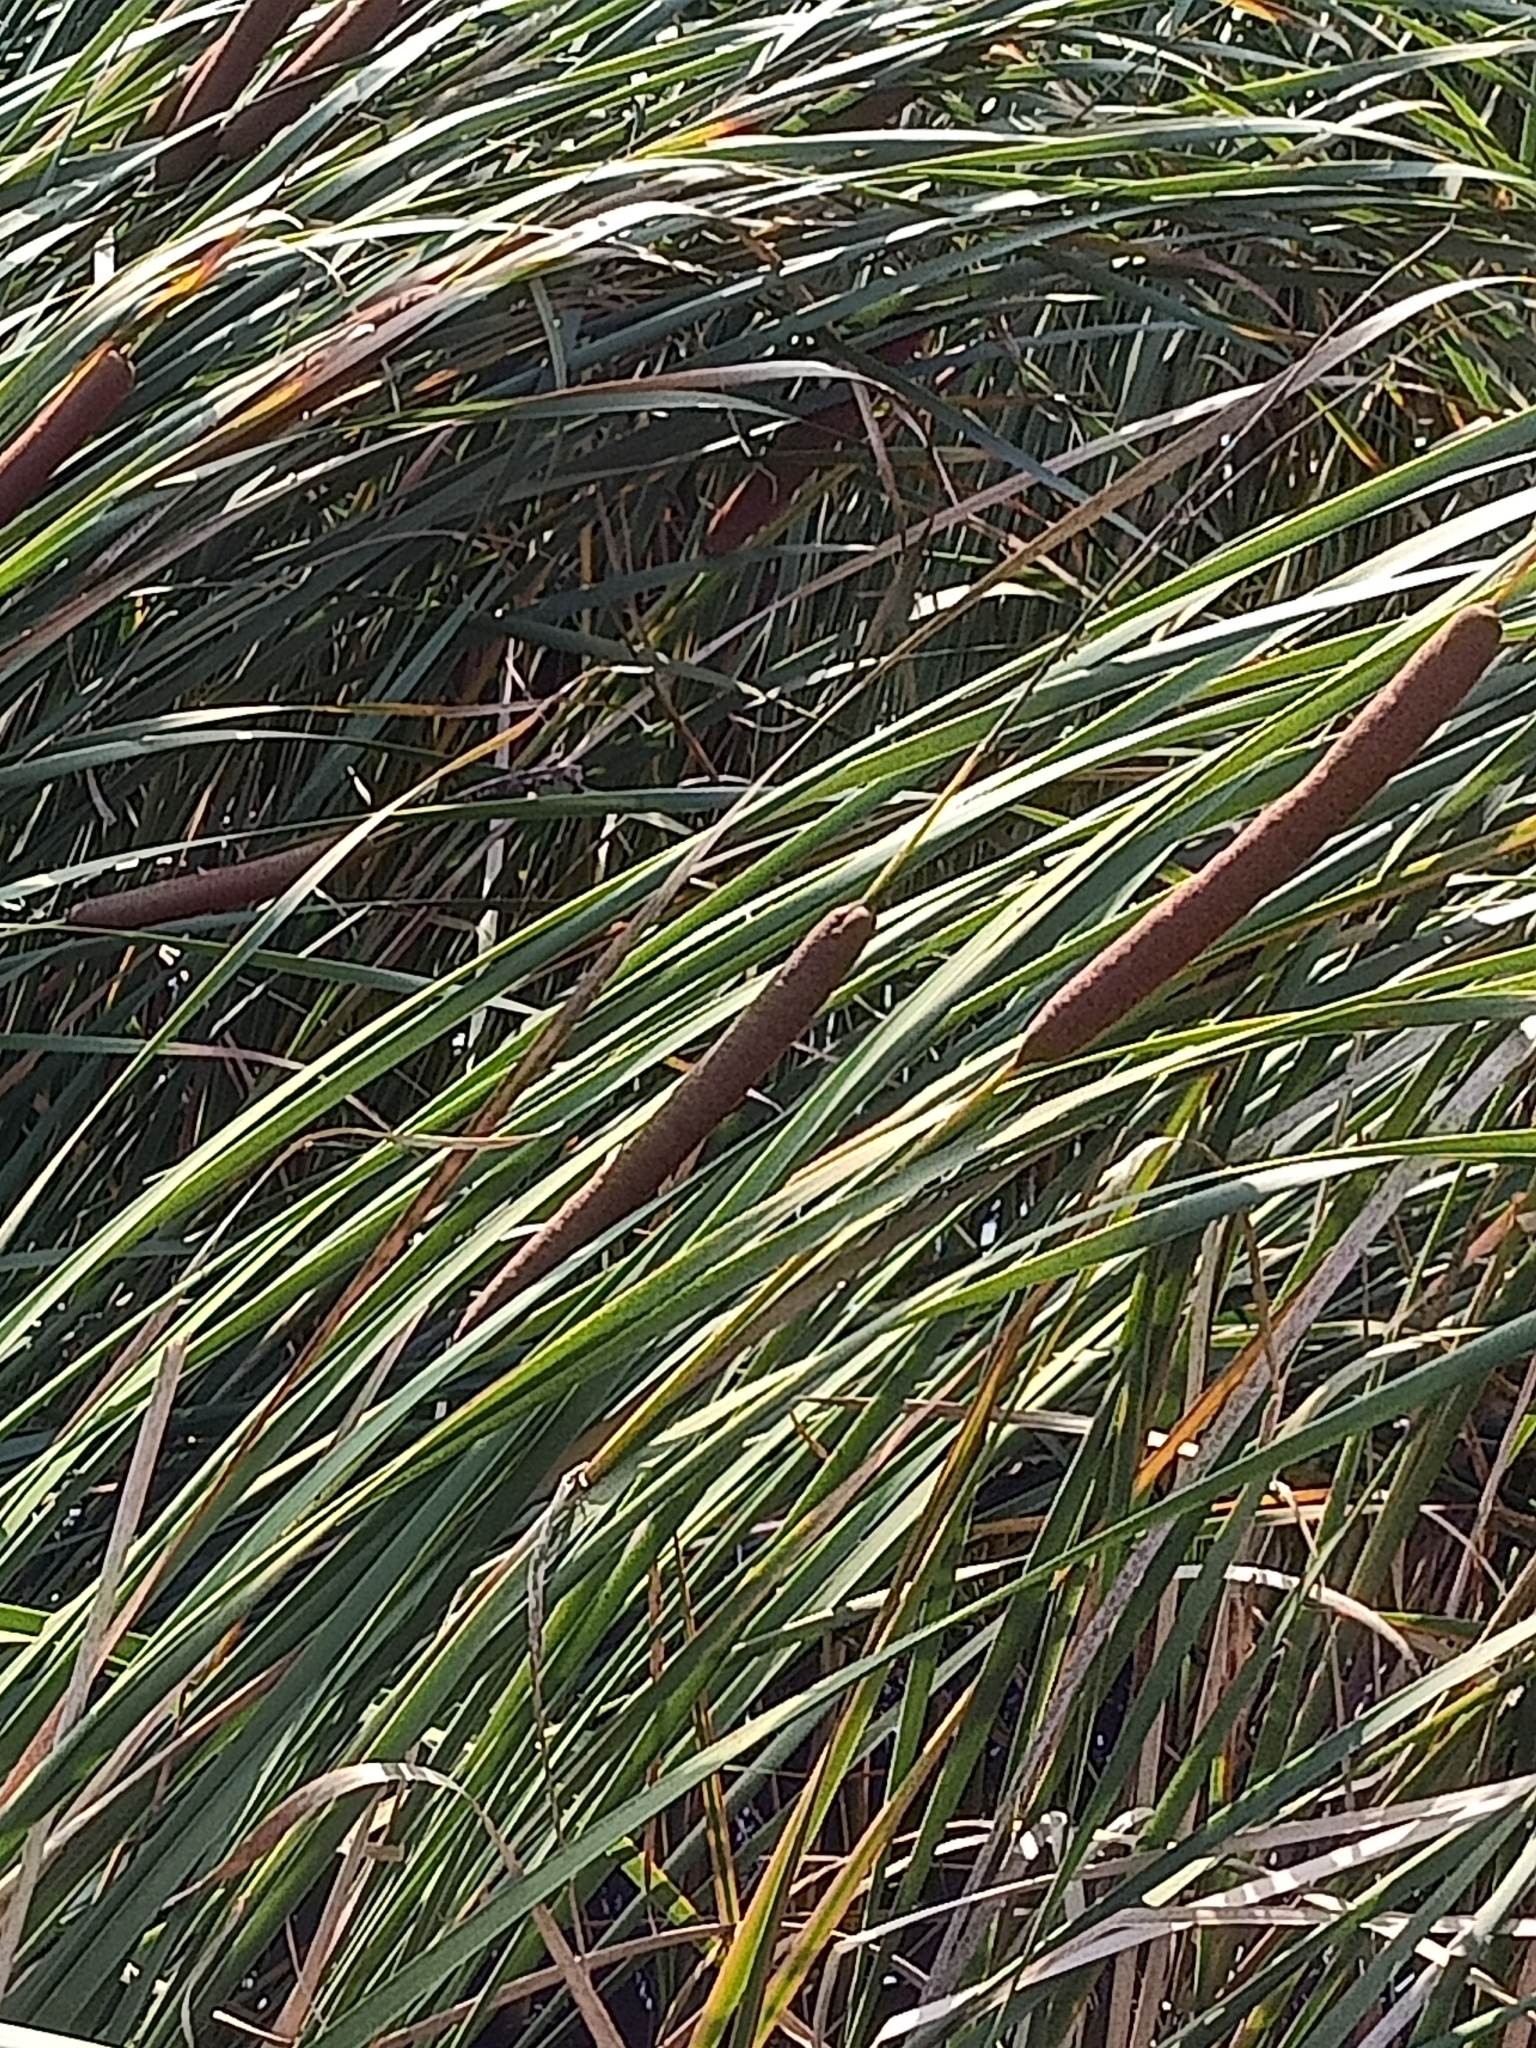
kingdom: Plantae
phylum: Tracheophyta
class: Liliopsida
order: Poales
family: Typhaceae
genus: Typha
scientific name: Typha angustifolia
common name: Lesser bulrush
